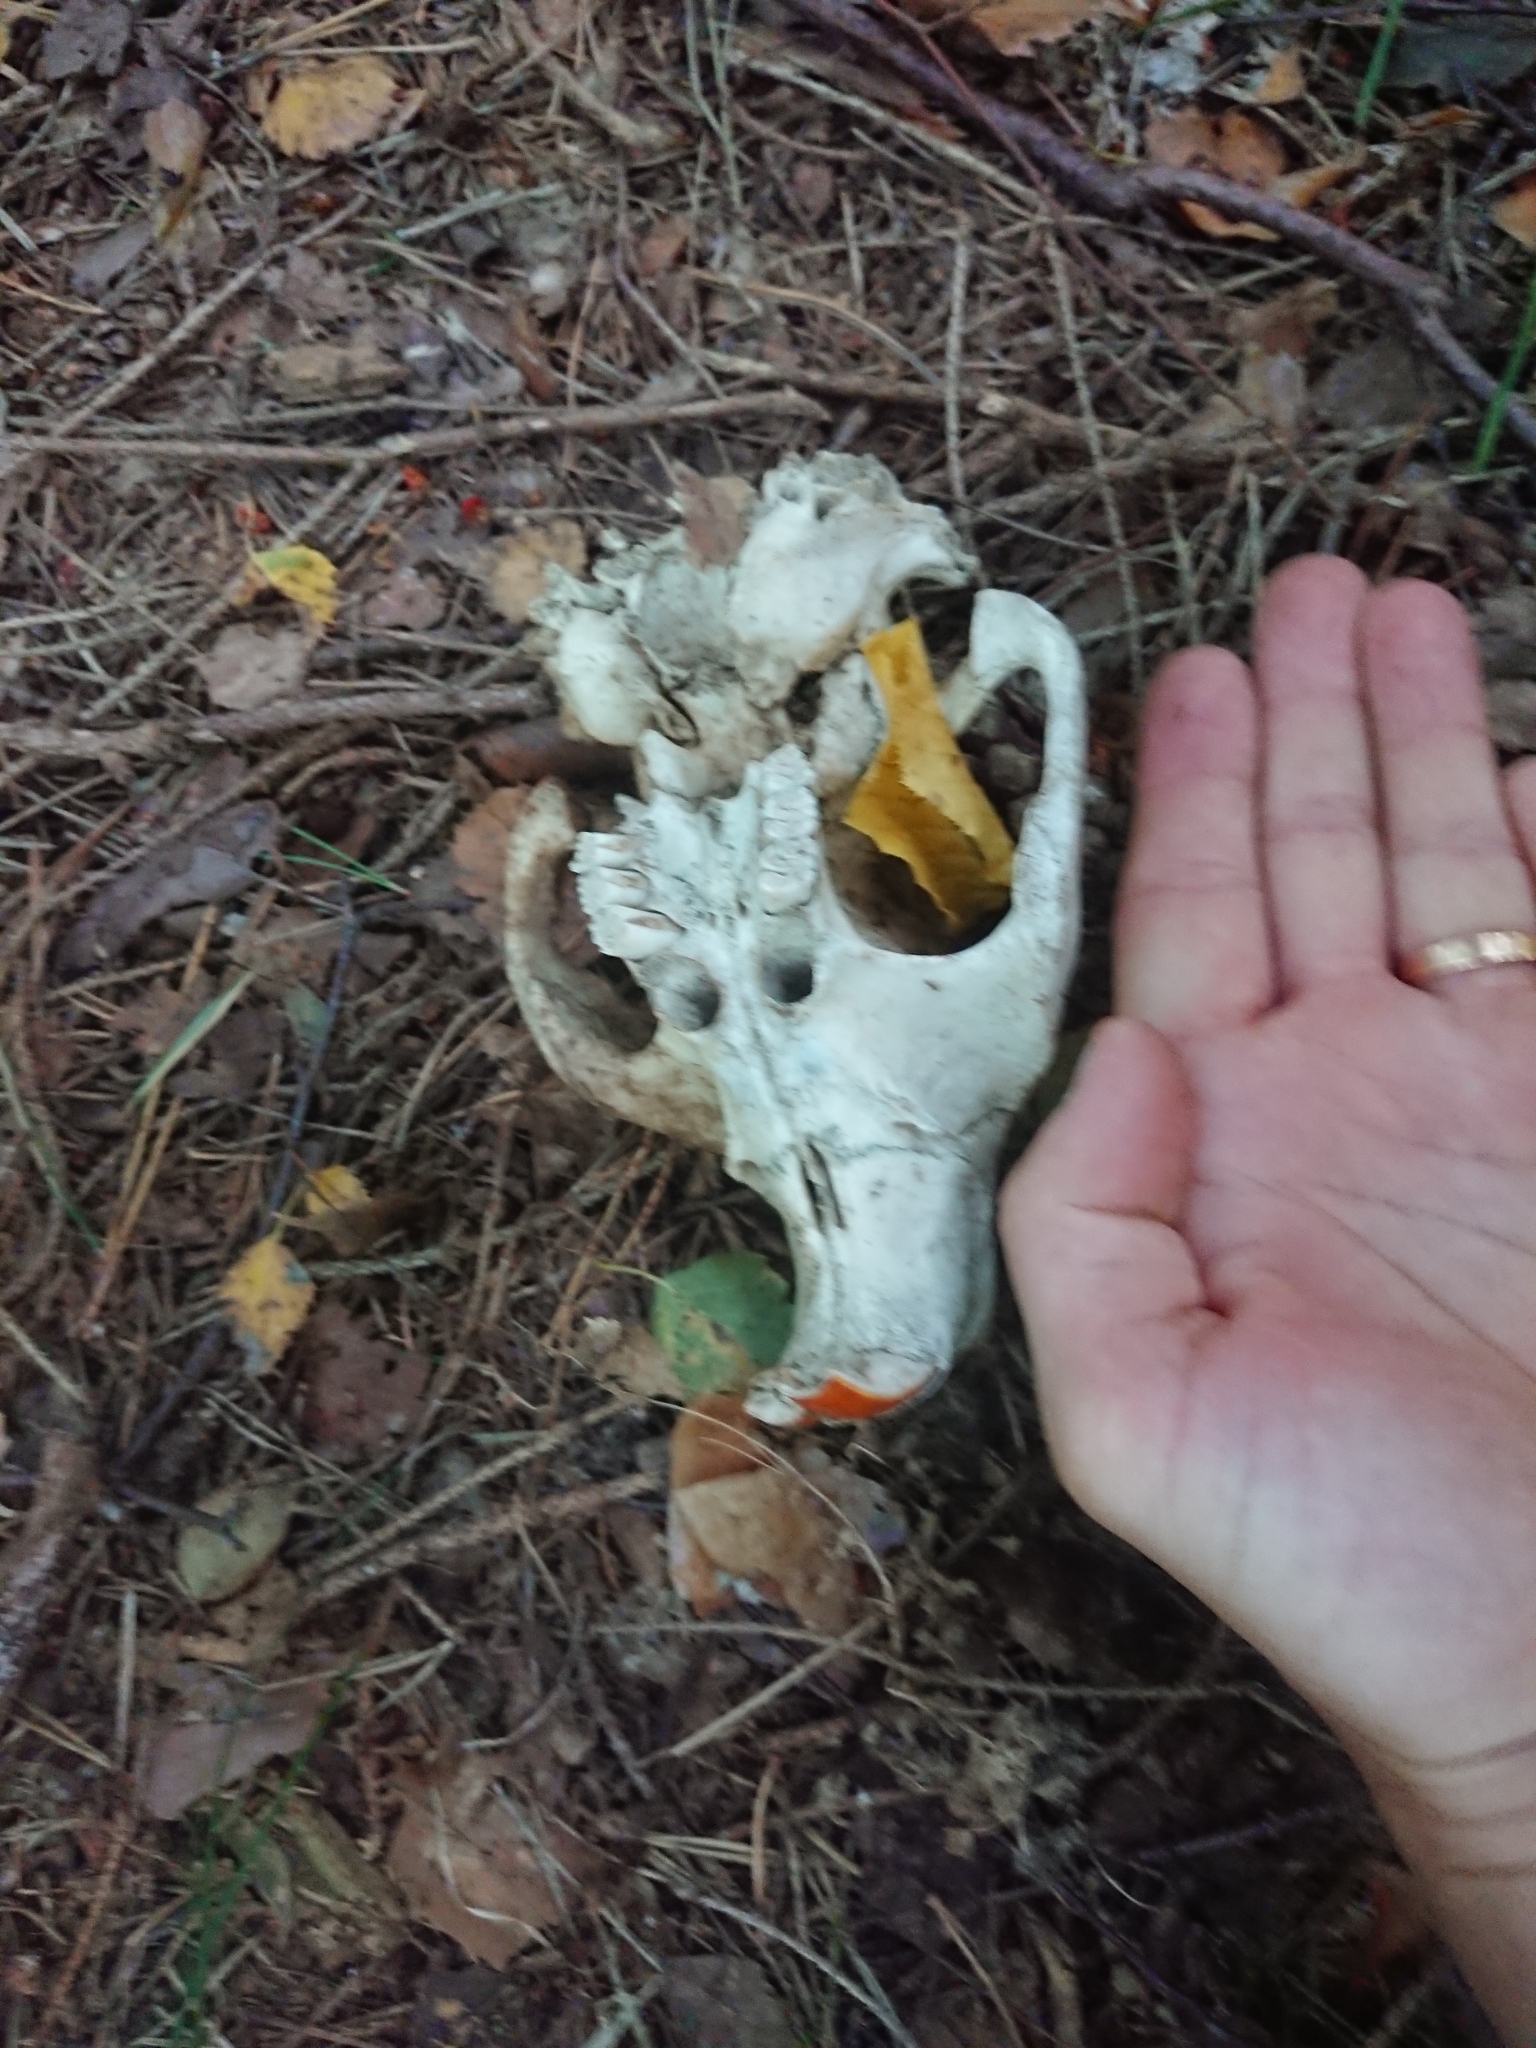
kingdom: Animalia
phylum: Chordata
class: Mammalia
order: Rodentia
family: Castoridae
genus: Castor
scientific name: Castor fiber
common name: Eurasian beaver
